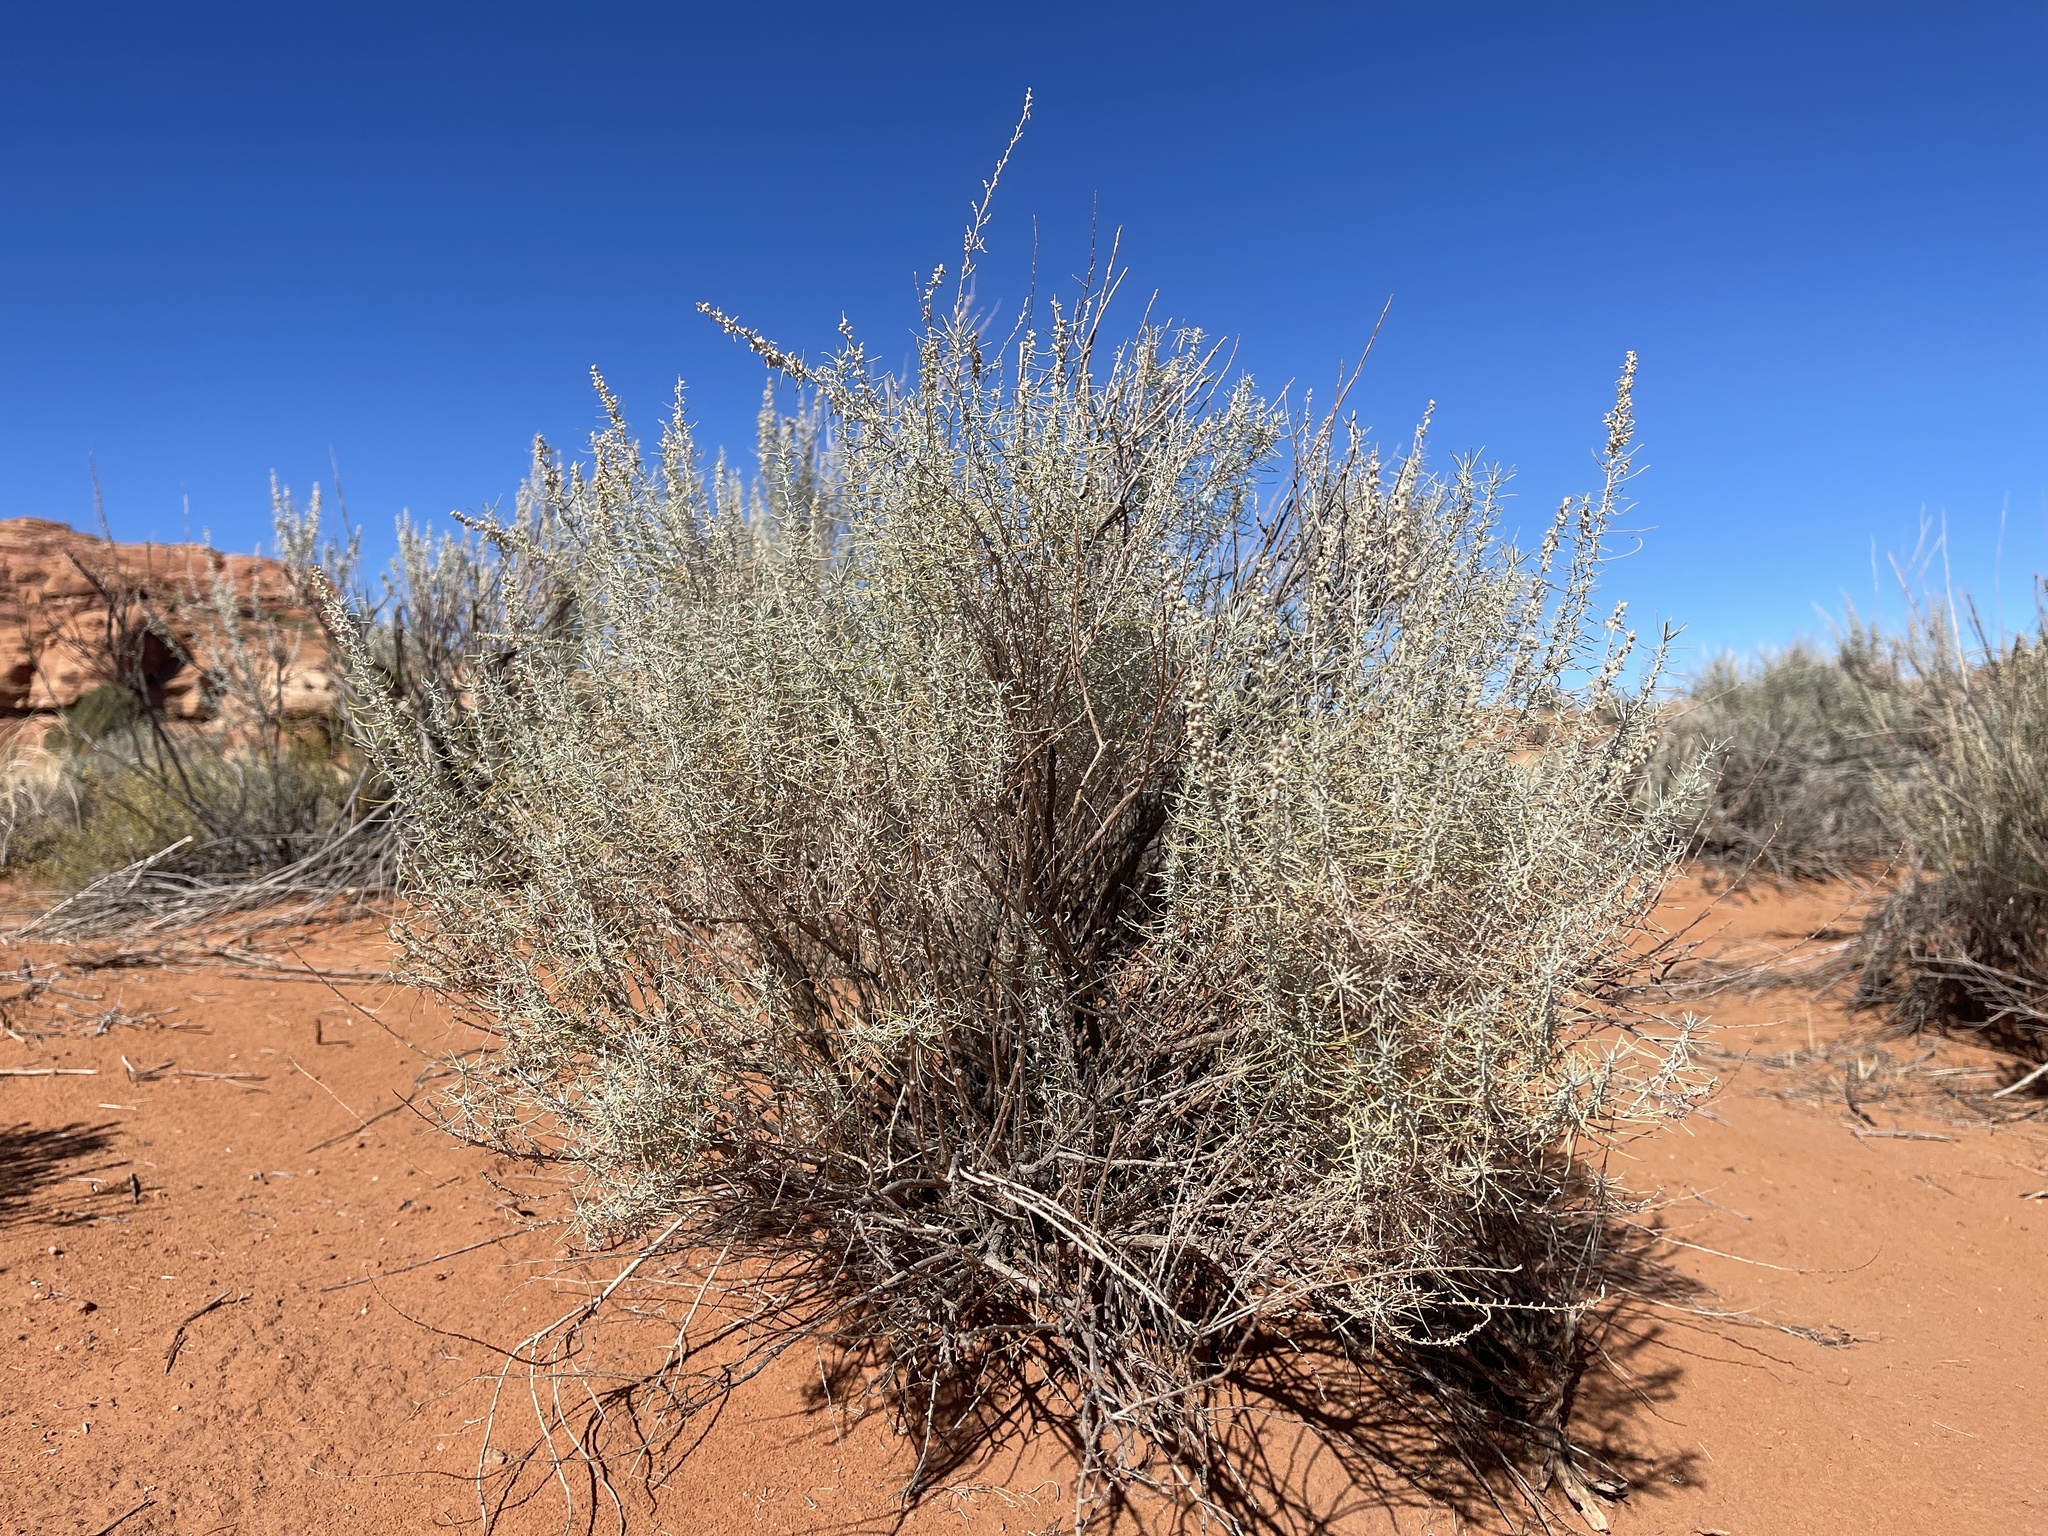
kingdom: Plantae
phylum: Tracheophyta
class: Magnoliopsida
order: Asterales
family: Asteraceae
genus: Artemisia
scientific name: Artemisia filifolia
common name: Sand-sage
